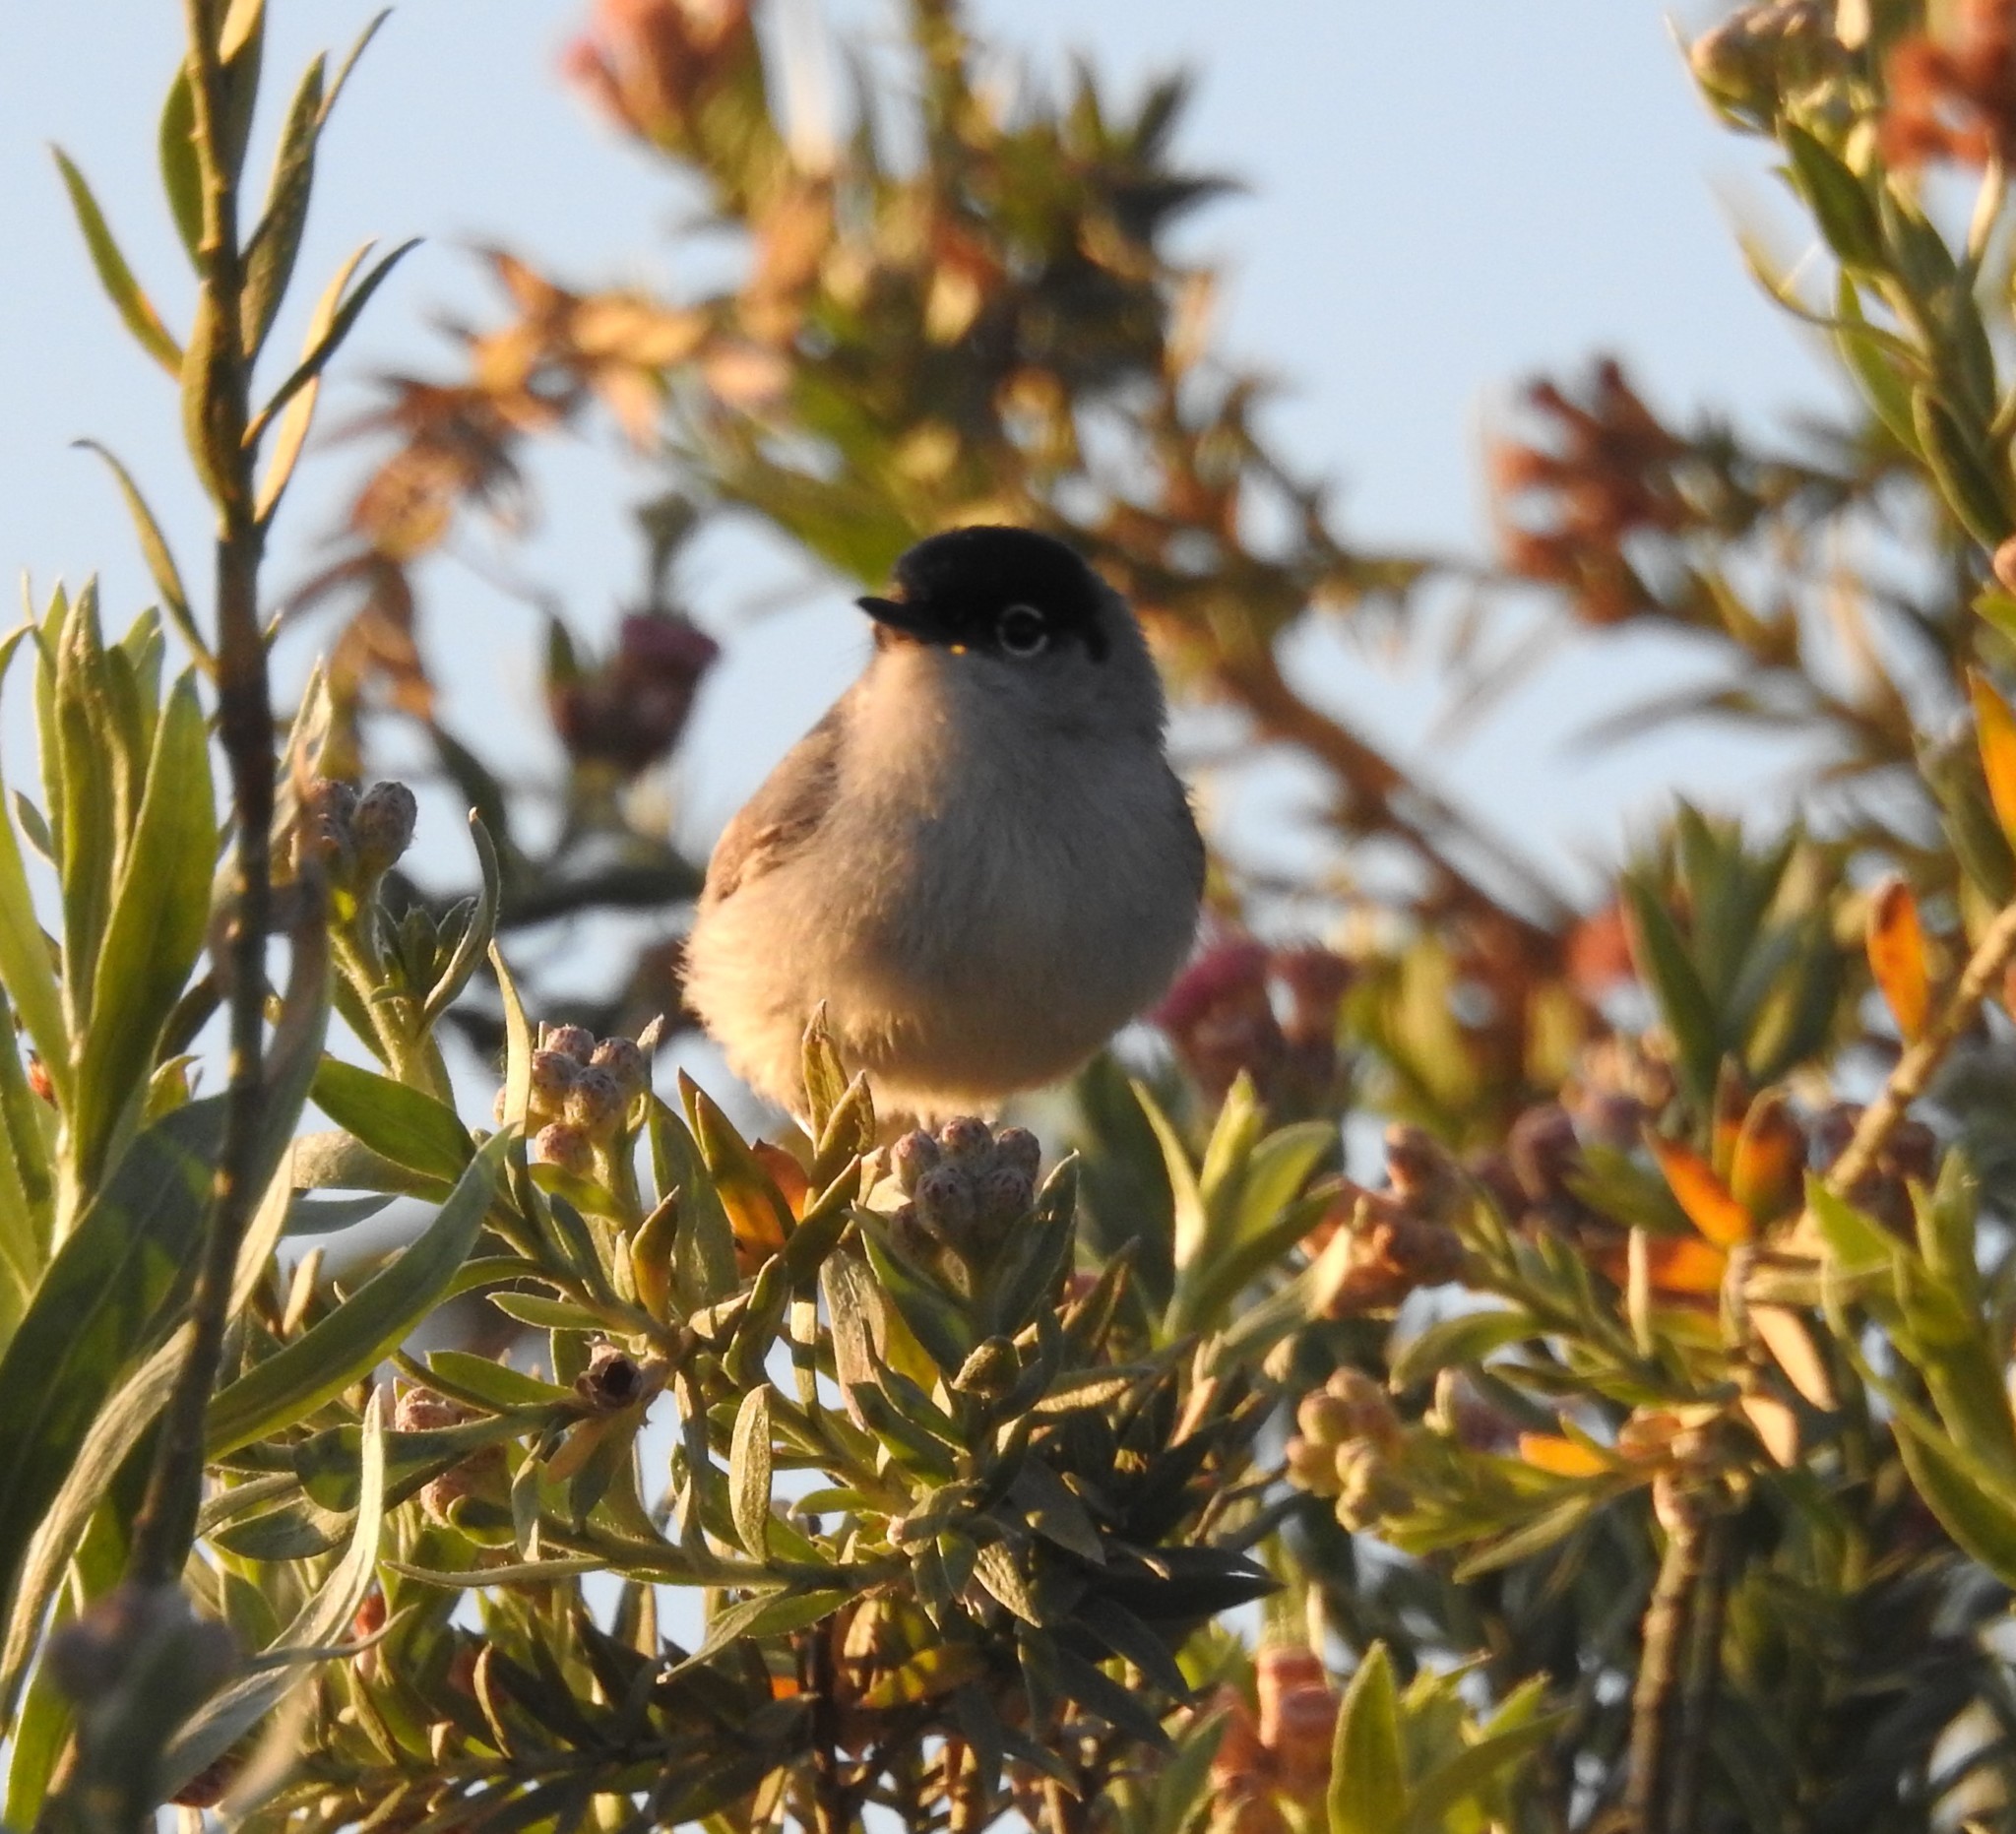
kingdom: Animalia
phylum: Chordata
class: Aves
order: Passeriformes
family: Polioptilidae
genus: Polioptila
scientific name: Polioptila melanura
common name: Black-tailed gnatcatcher
